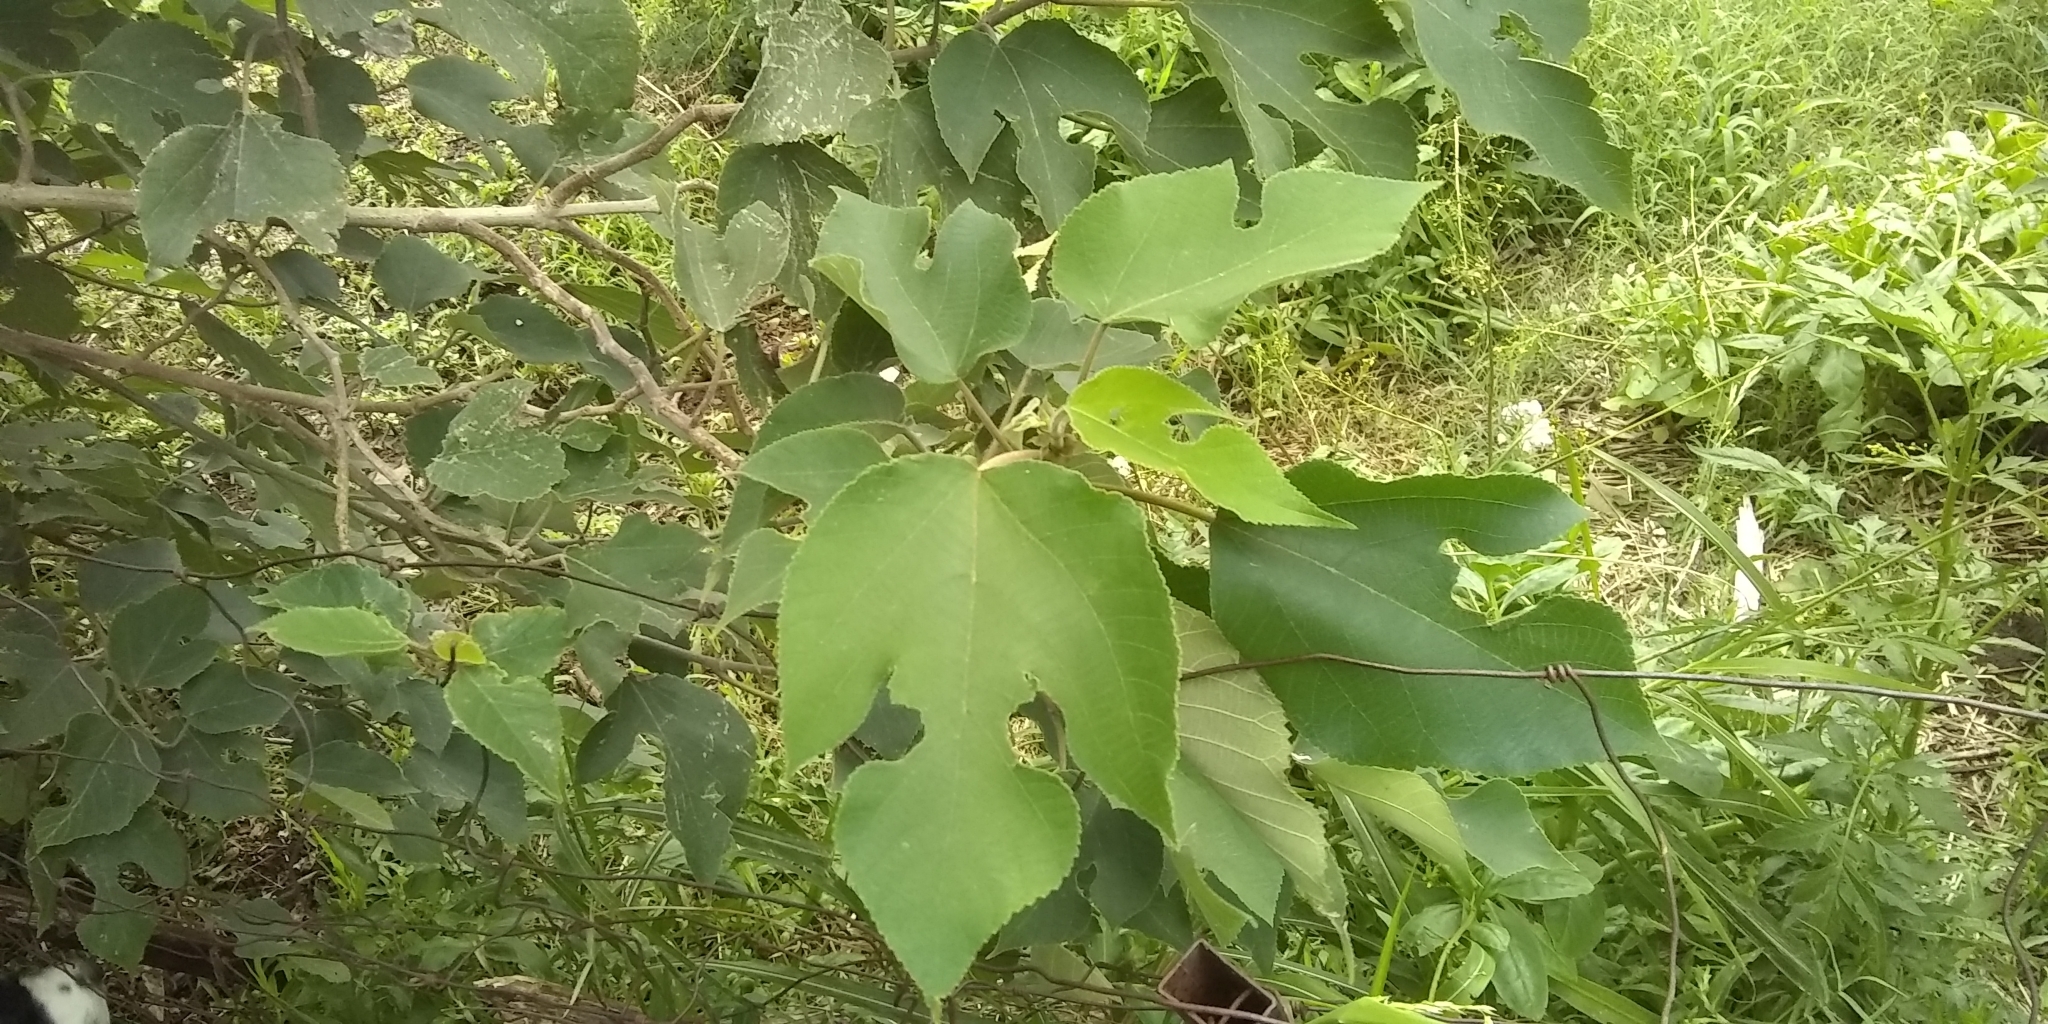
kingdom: Plantae
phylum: Tracheophyta
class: Magnoliopsida
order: Rosales
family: Moraceae
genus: Broussonetia
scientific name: Broussonetia papyrifera
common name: Paper mulberry
